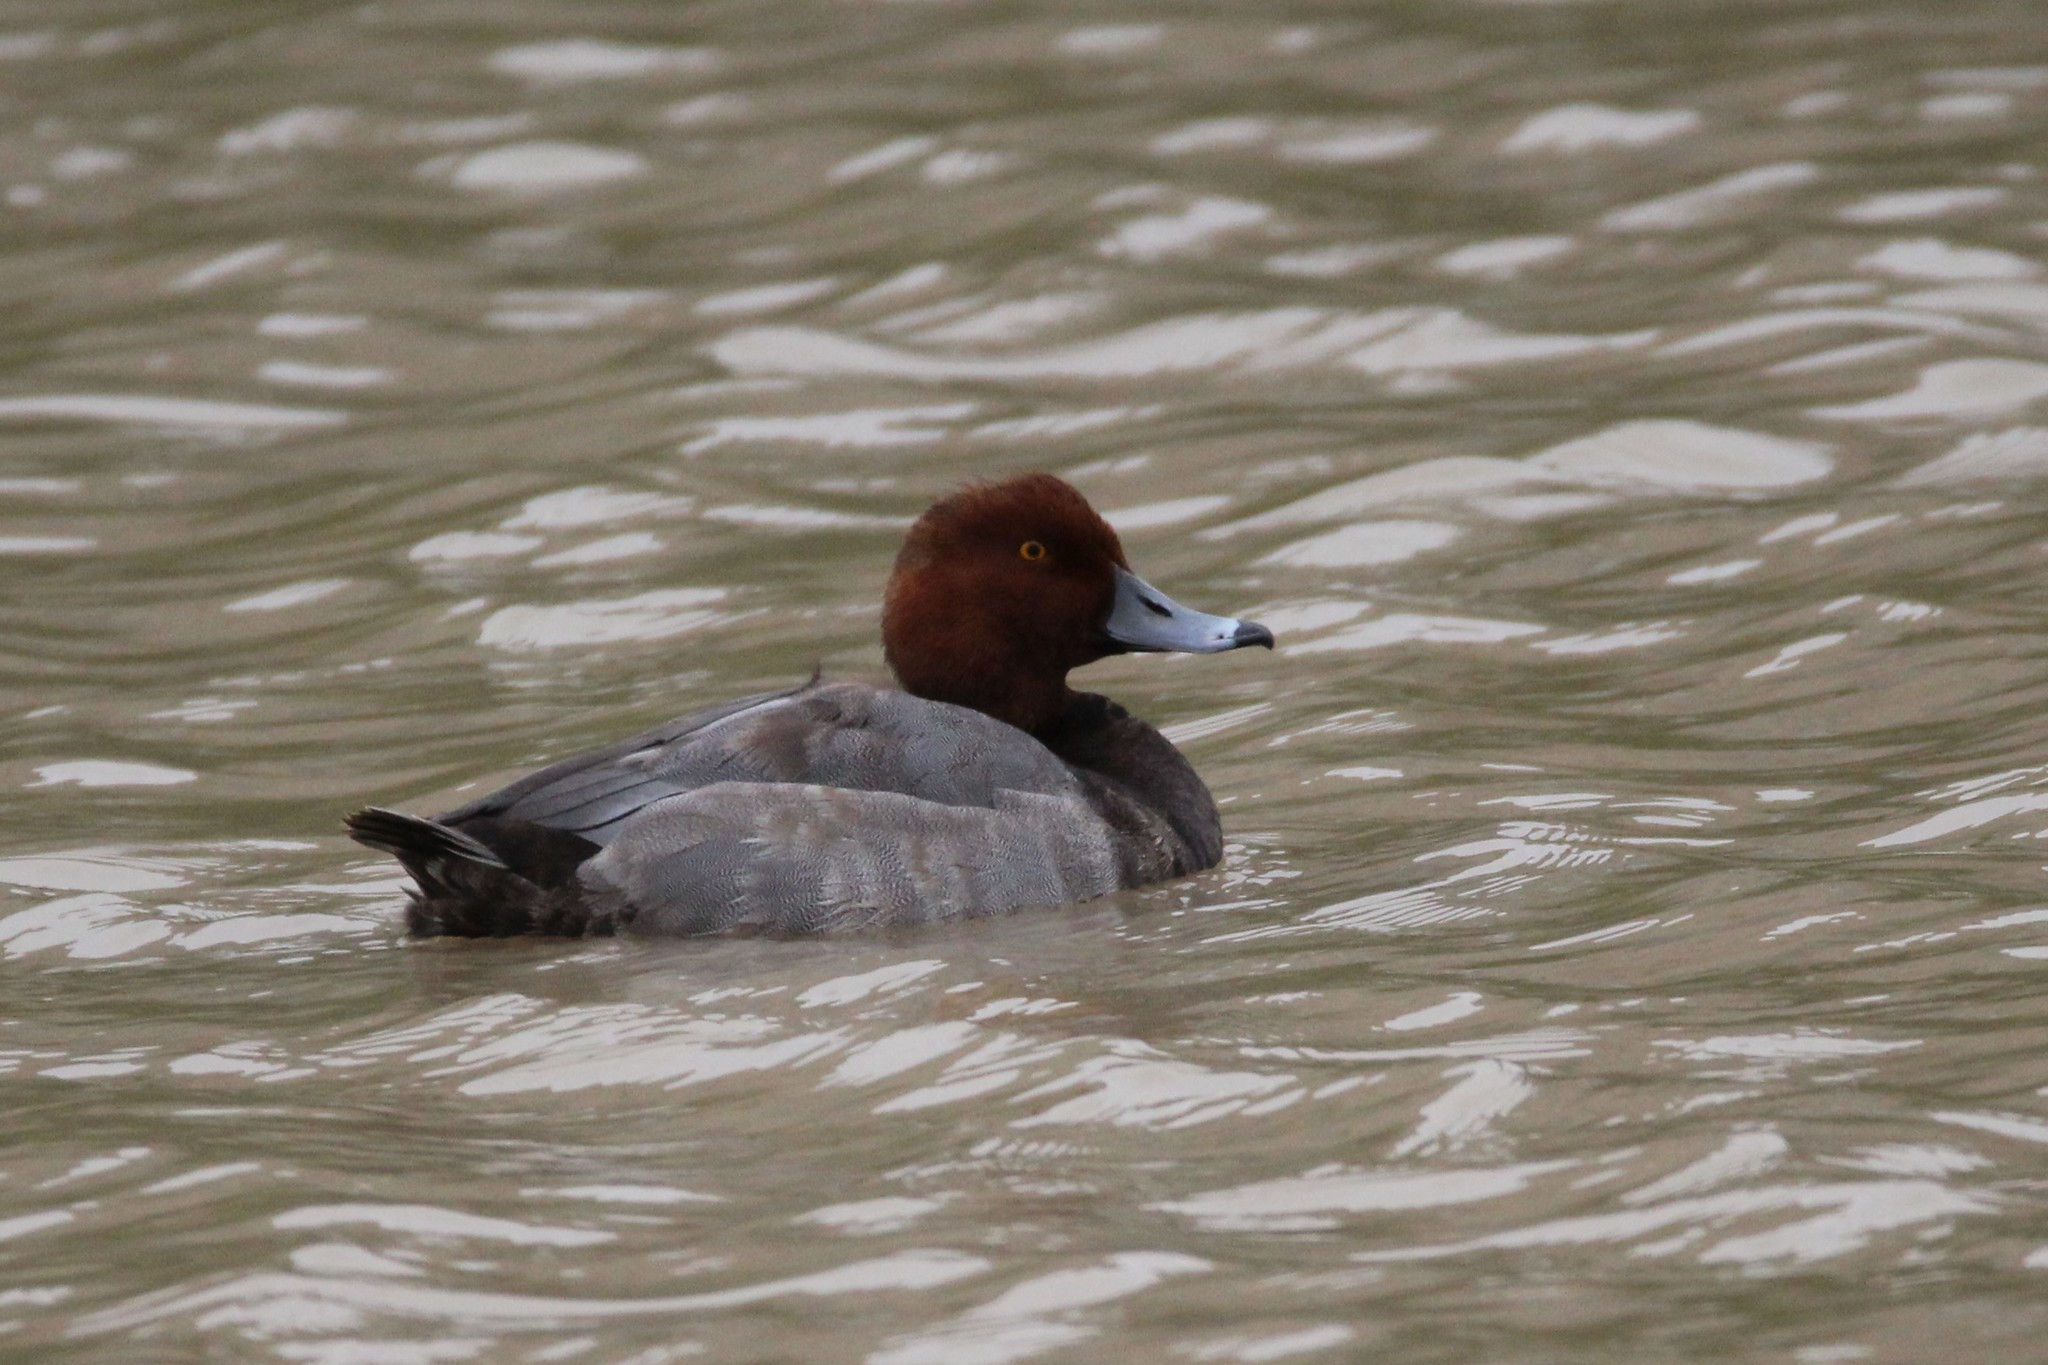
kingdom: Animalia
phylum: Chordata
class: Aves
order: Anseriformes
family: Anatidae
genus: Aythya
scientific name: Aythya americana
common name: Redhead
